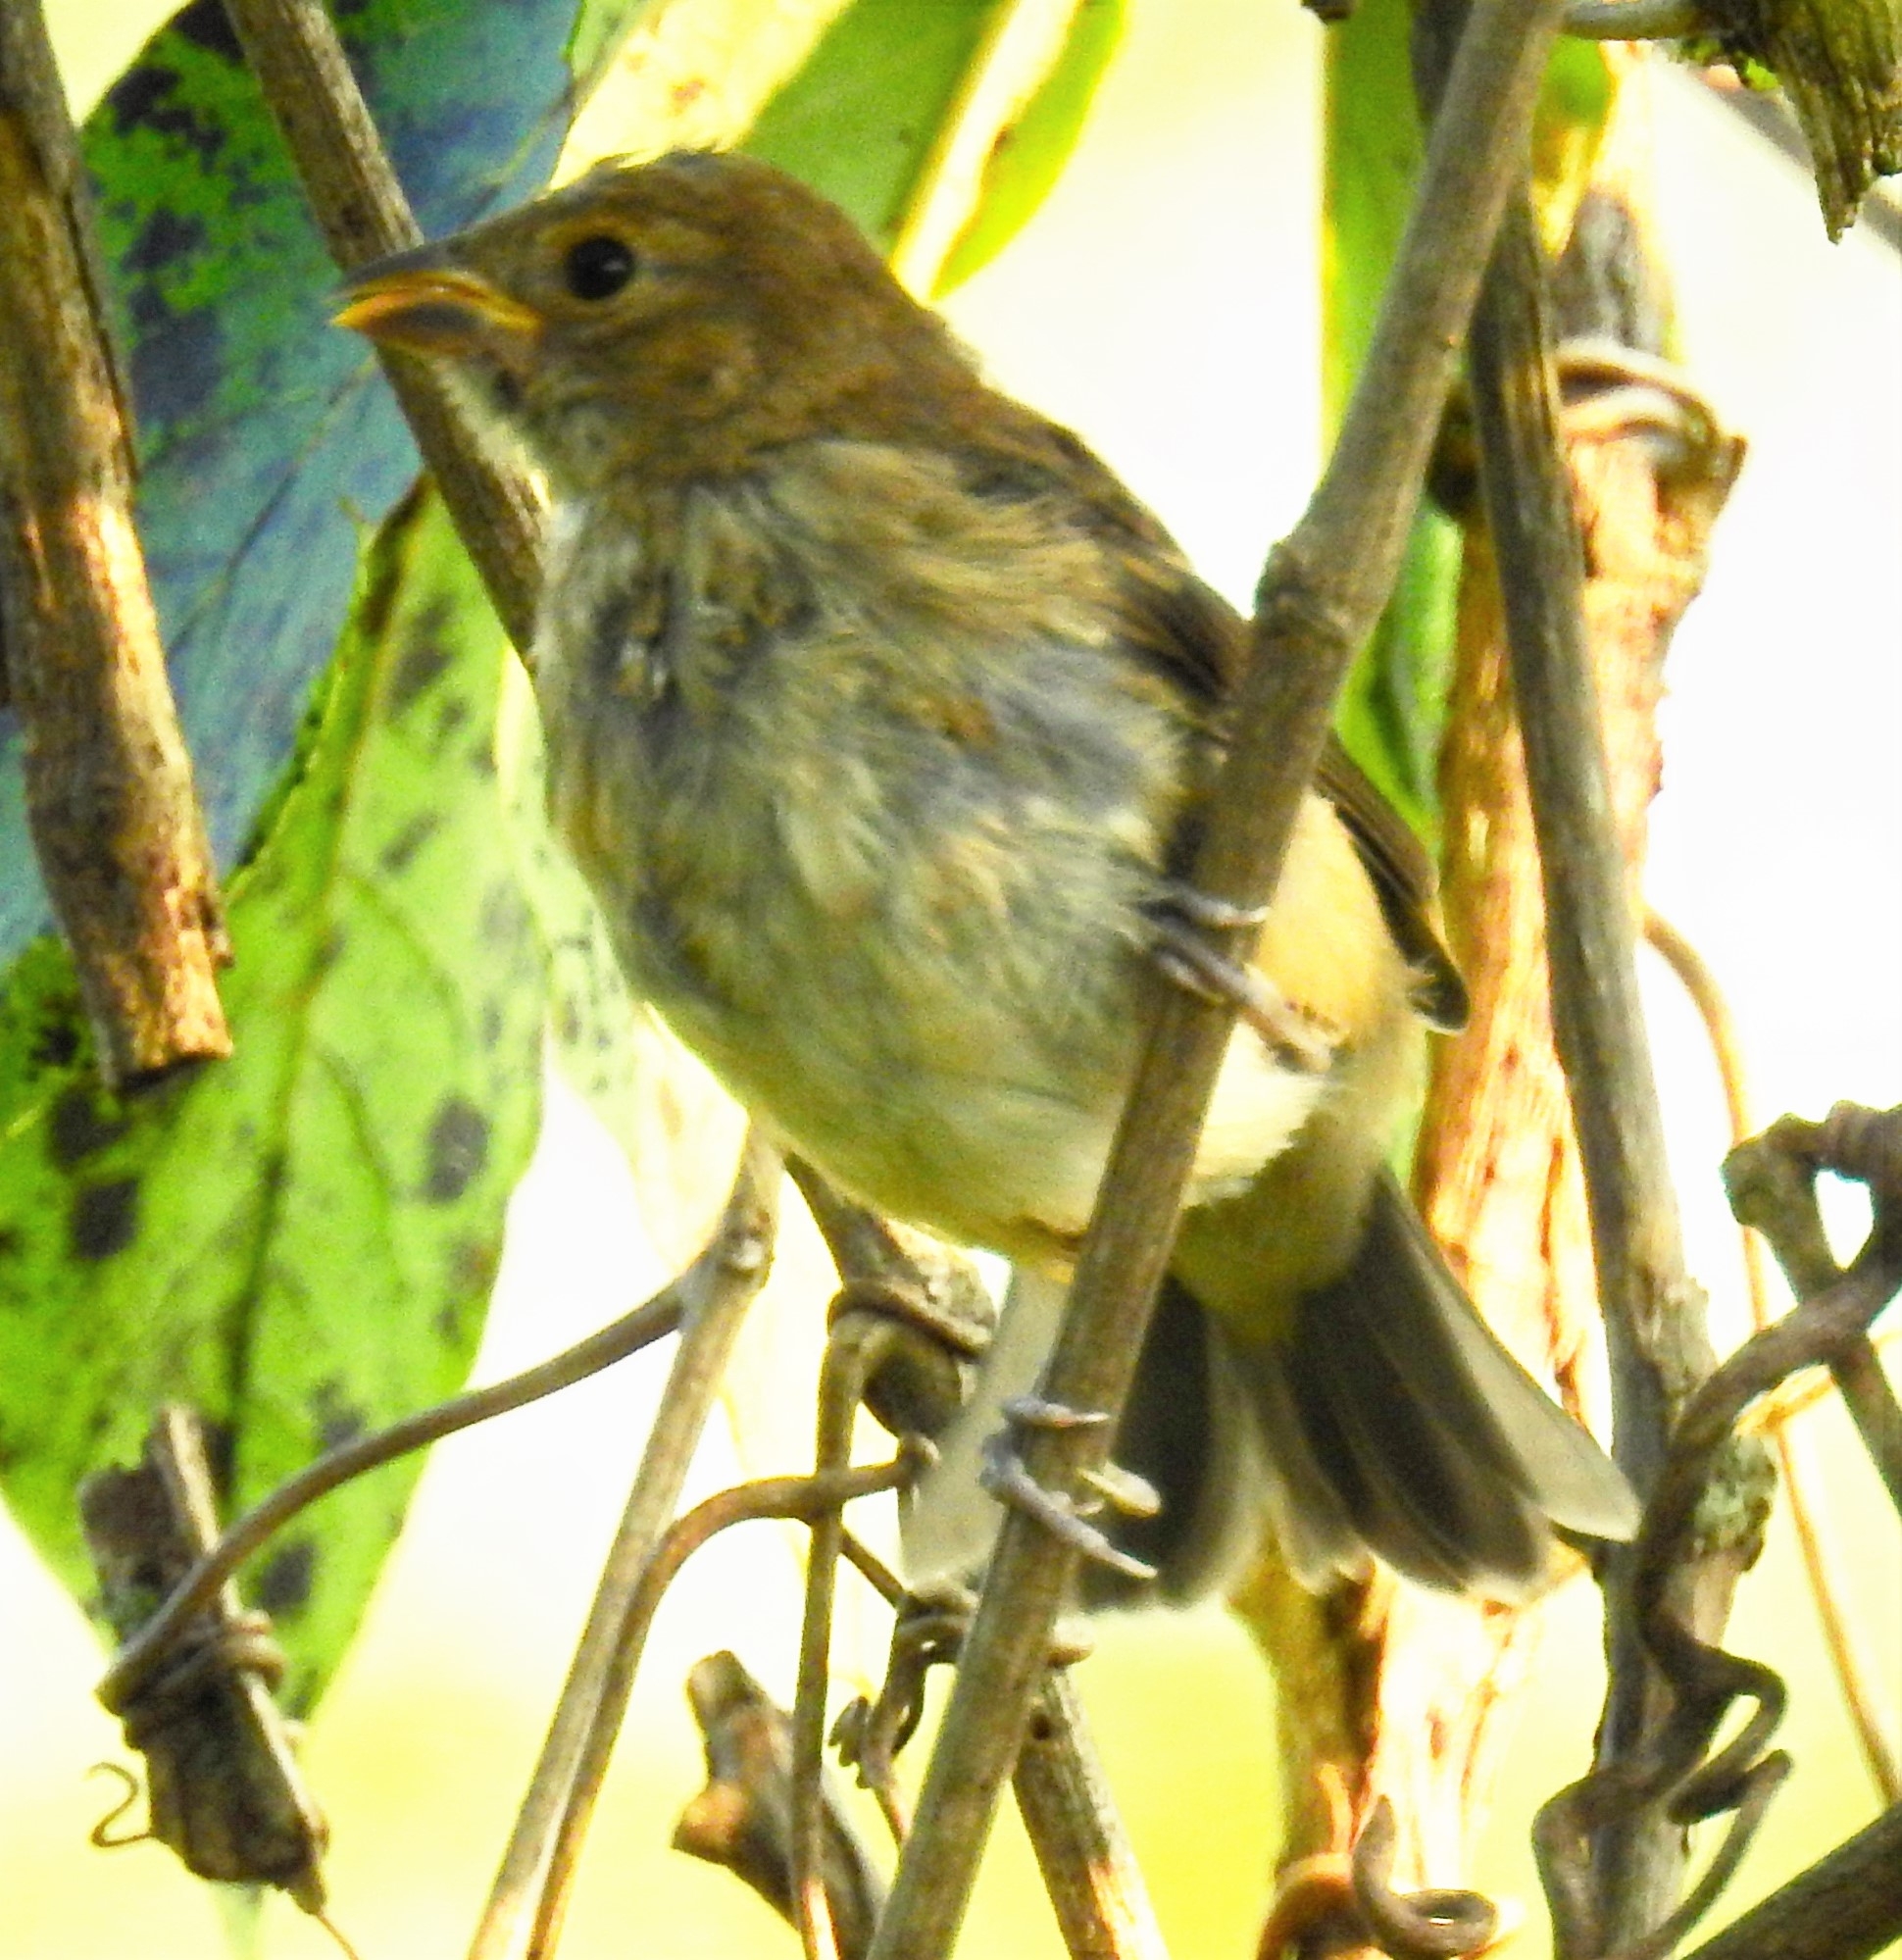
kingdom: Animalia
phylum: Chordata
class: Aves
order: Passeriformes
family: Cardinalidae
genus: Passerina
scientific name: Passerina cyanea
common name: Indigo bunting
